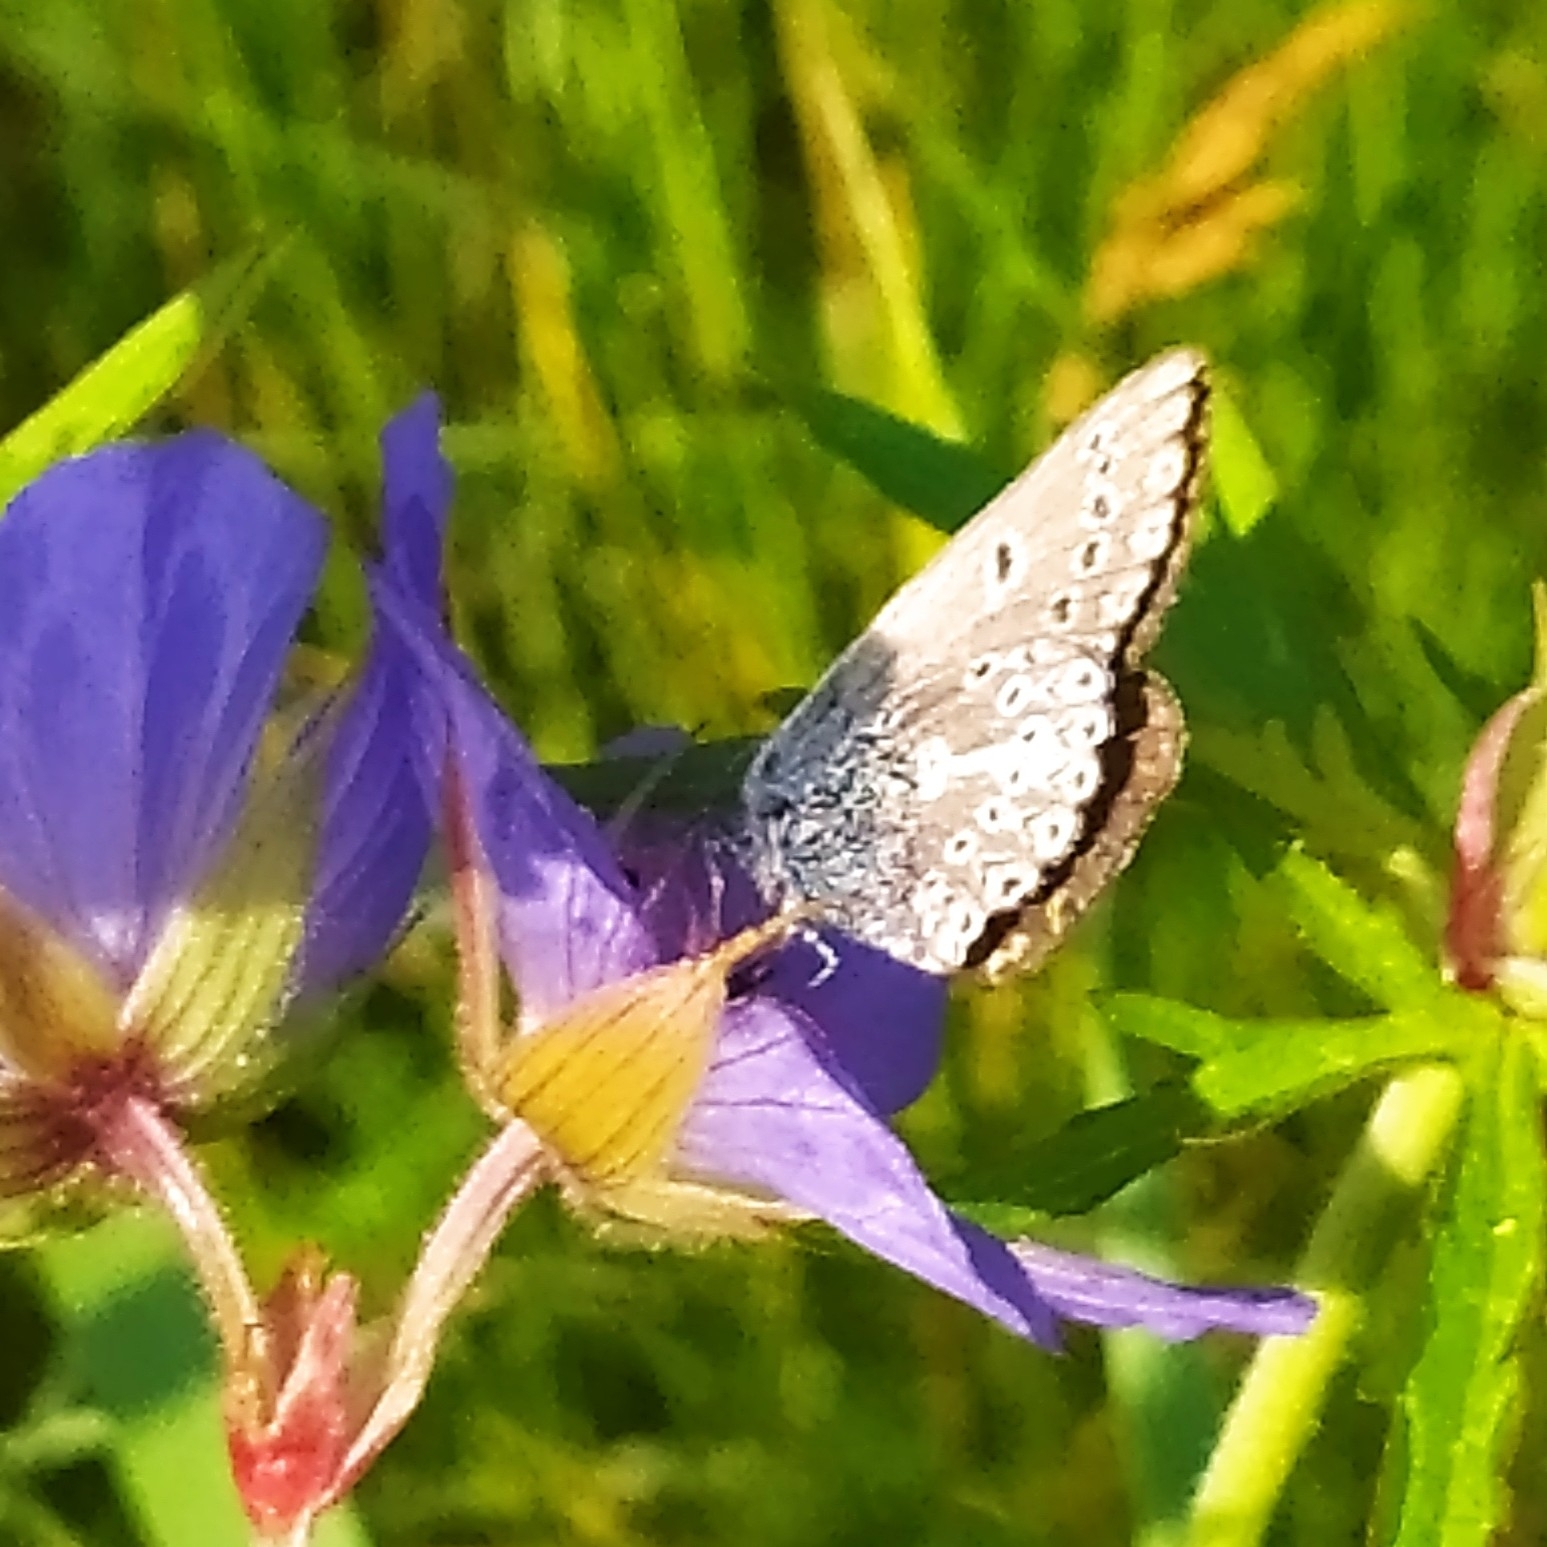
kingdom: Animalia
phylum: Arthropoda
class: Insecta
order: Lepidoptera
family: Lycaenidae
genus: Eumedonia
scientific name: Eumedonia eumedon
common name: Geranium argus
